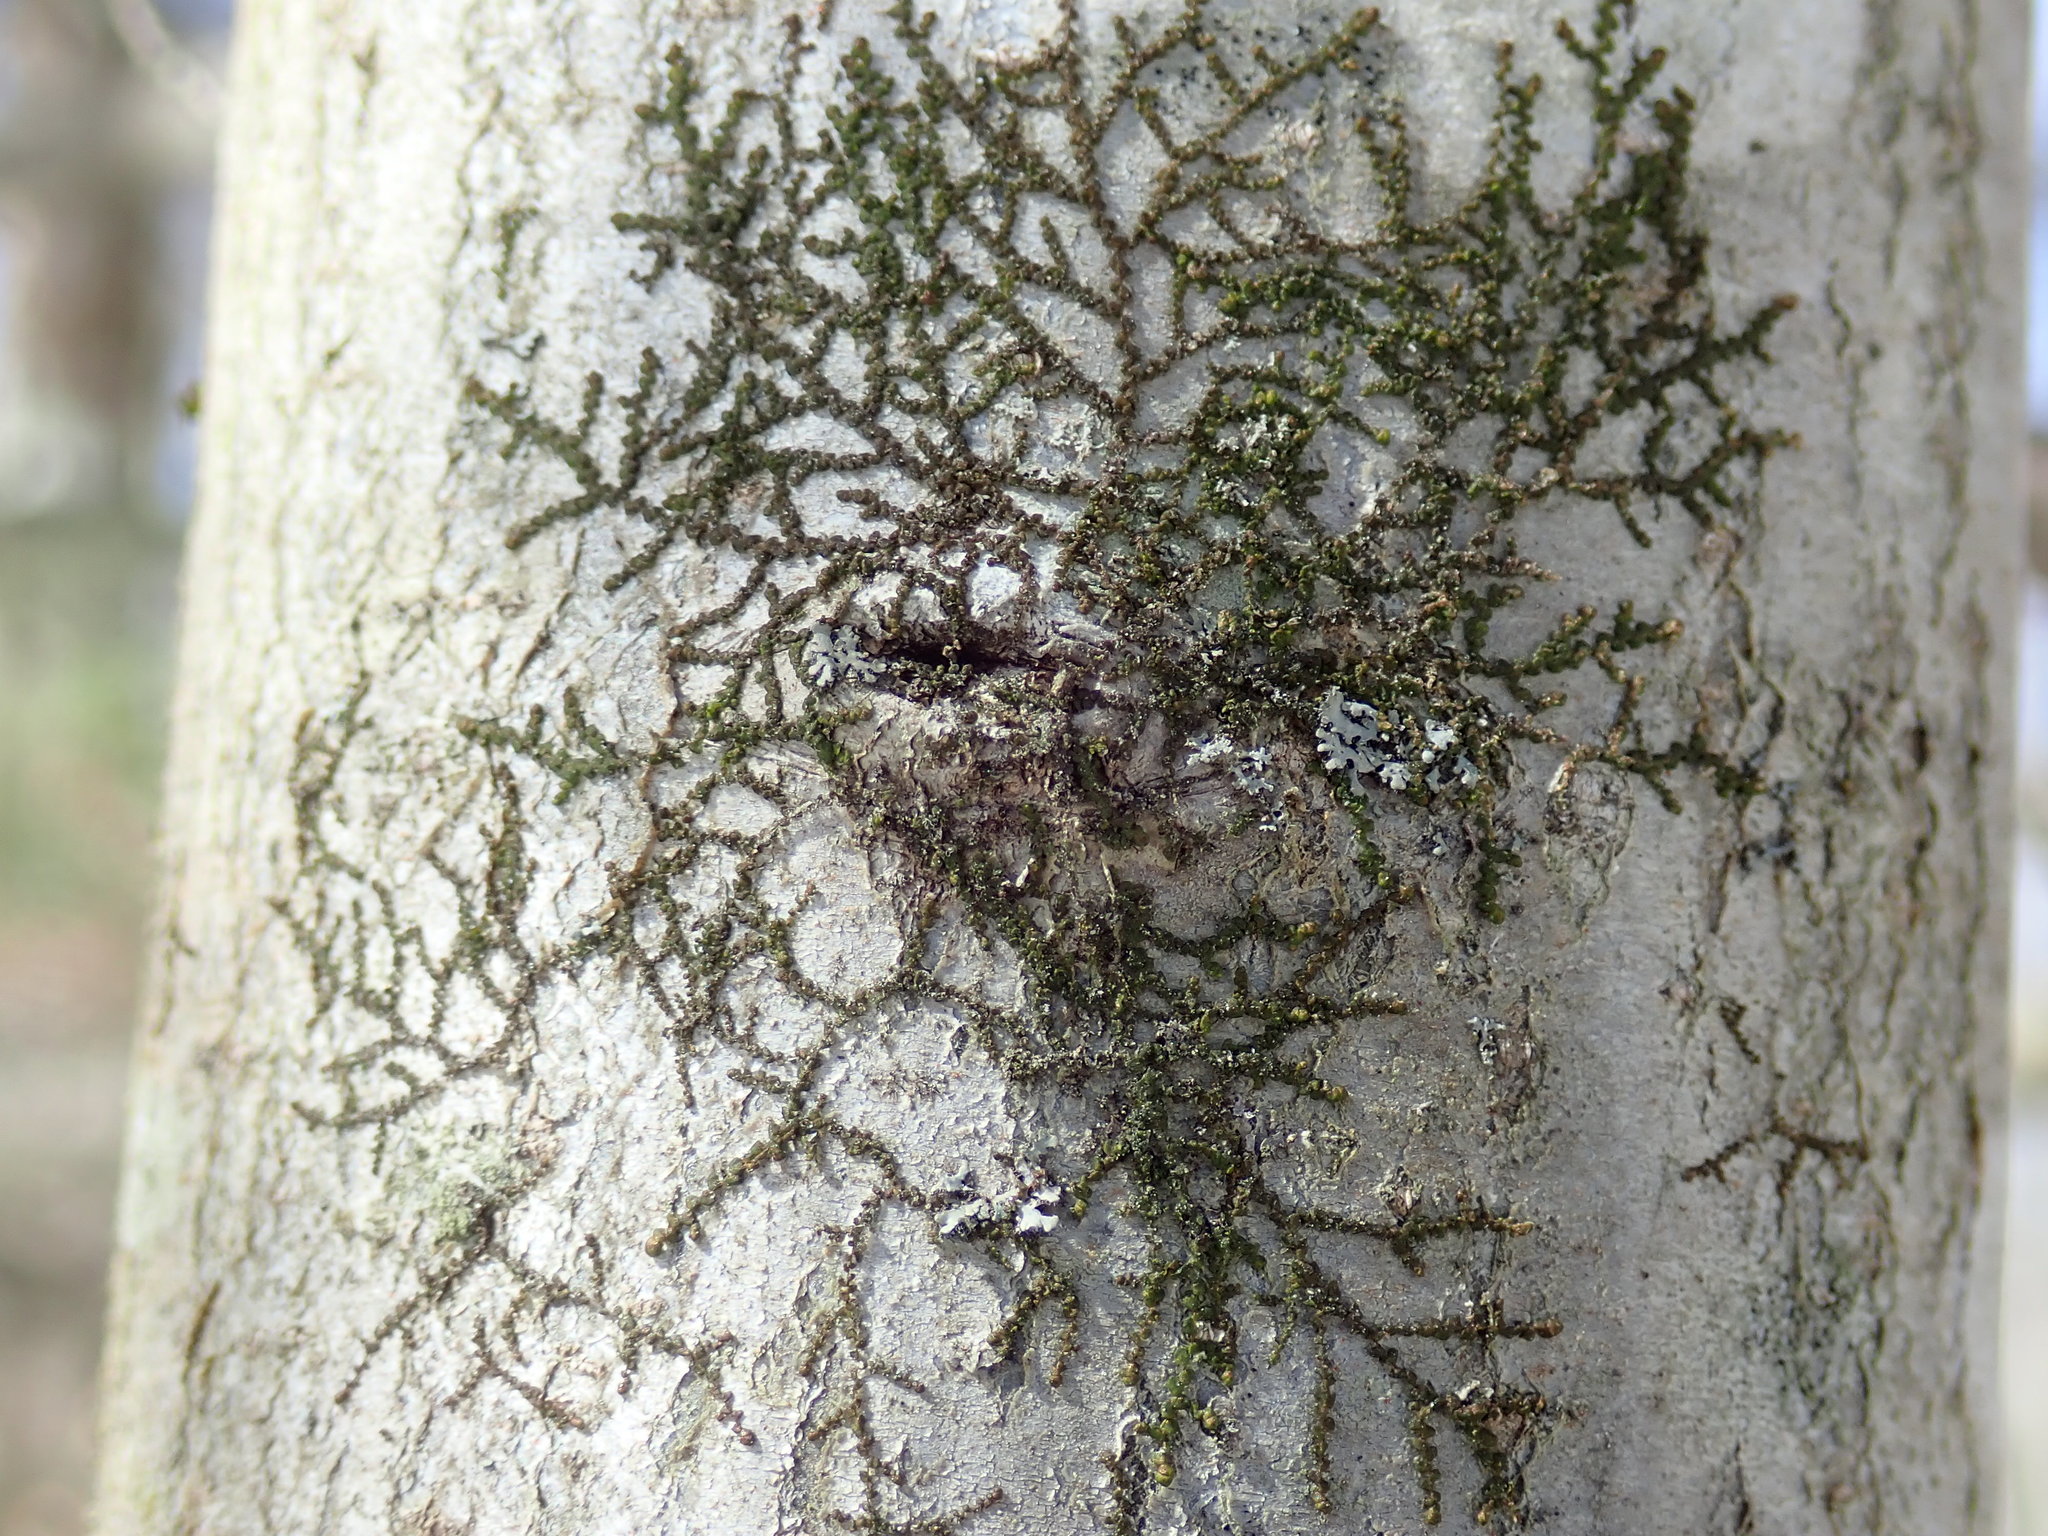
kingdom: Plantae
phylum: Marchantiophyta
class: Jungermanniopsida
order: Porellales
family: Frullaniaceae
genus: Frullania
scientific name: Frullania
